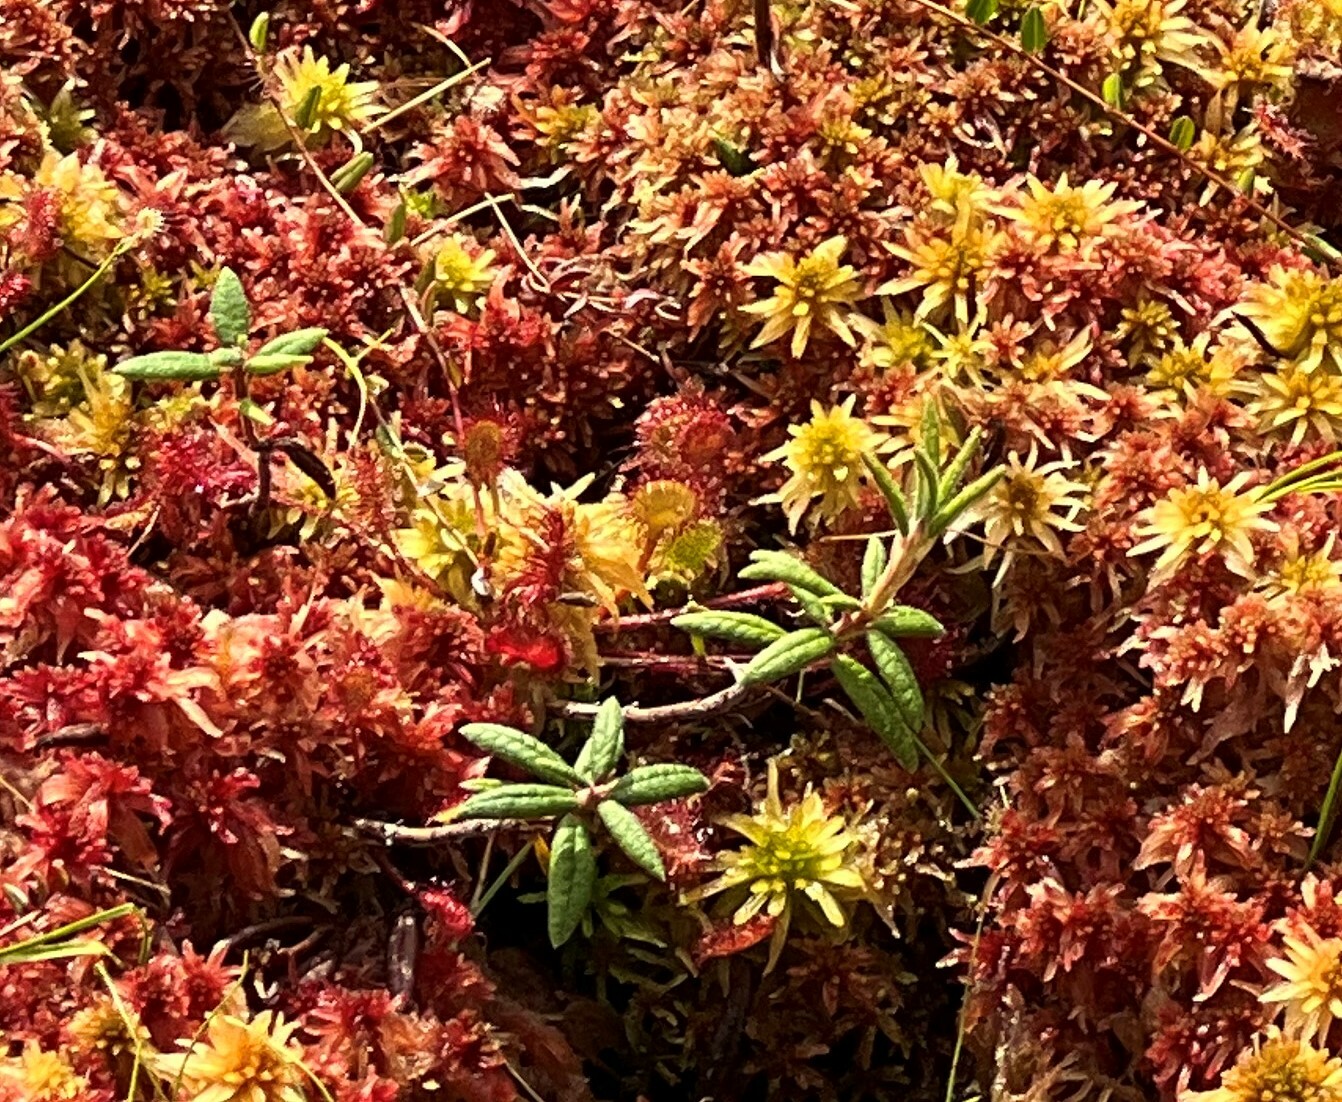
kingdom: Plantae
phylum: Tracheophyta
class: Magnoliopsida
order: Ericales
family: Ericaceae
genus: Rhododendron
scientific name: Rhododendron groenlandicum
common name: Bog labrador tea
